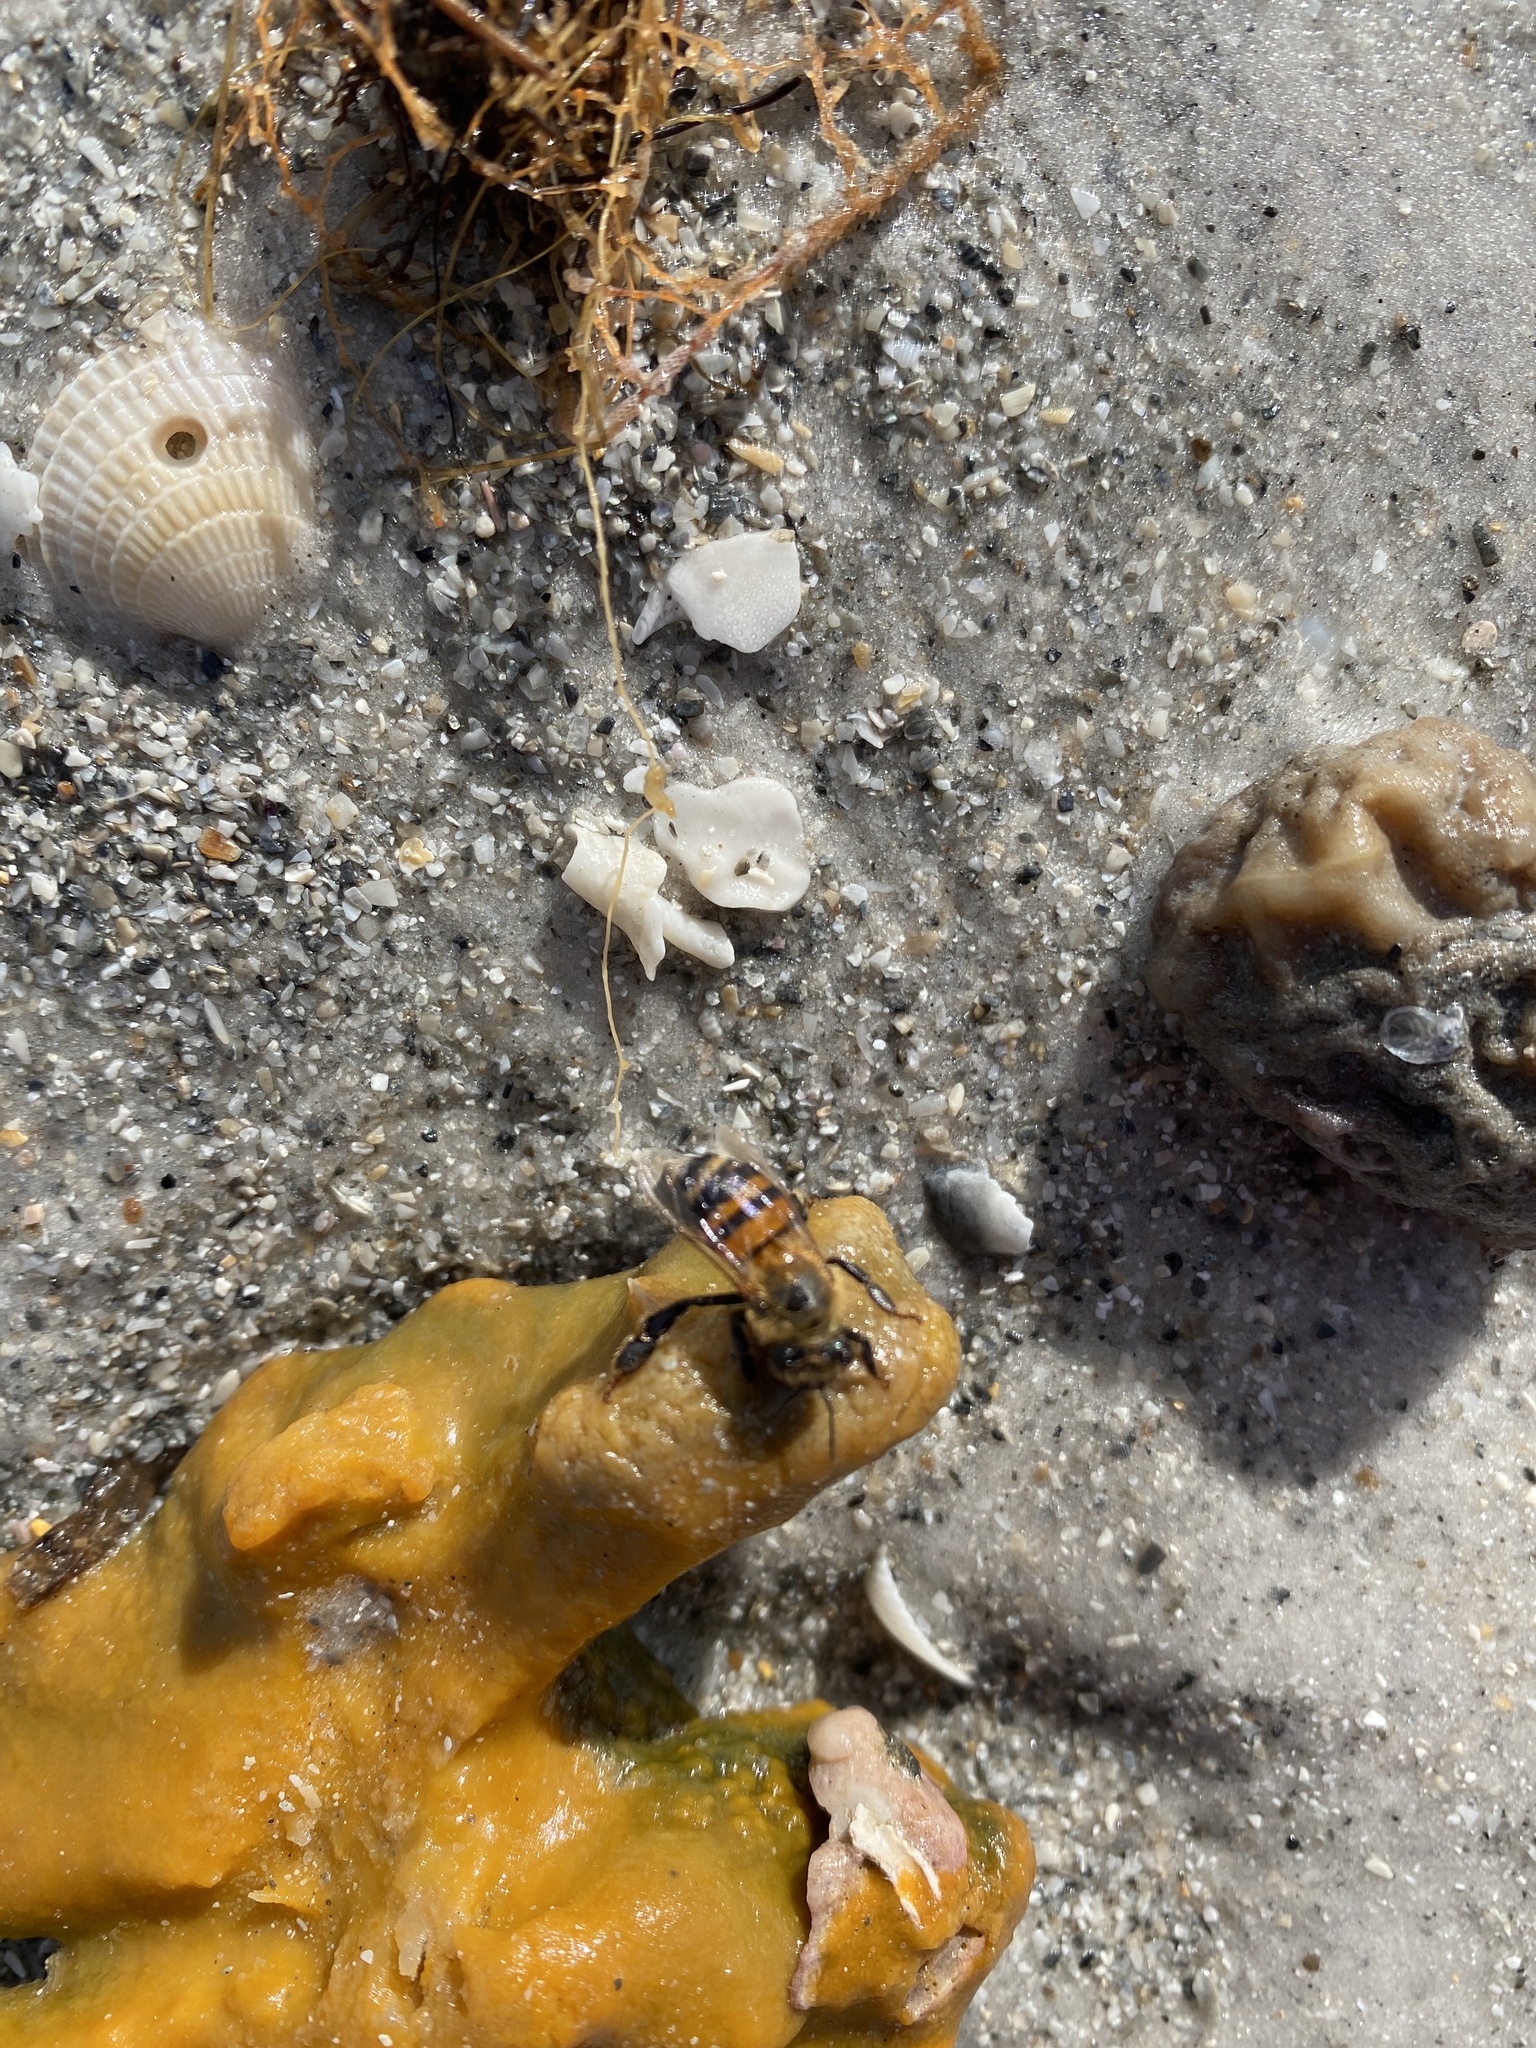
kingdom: Animalia
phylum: Arthropoda
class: Insecta
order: Hymenoptera
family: Apidae
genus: Apis
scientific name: Apis mellifera
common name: Honey bee
